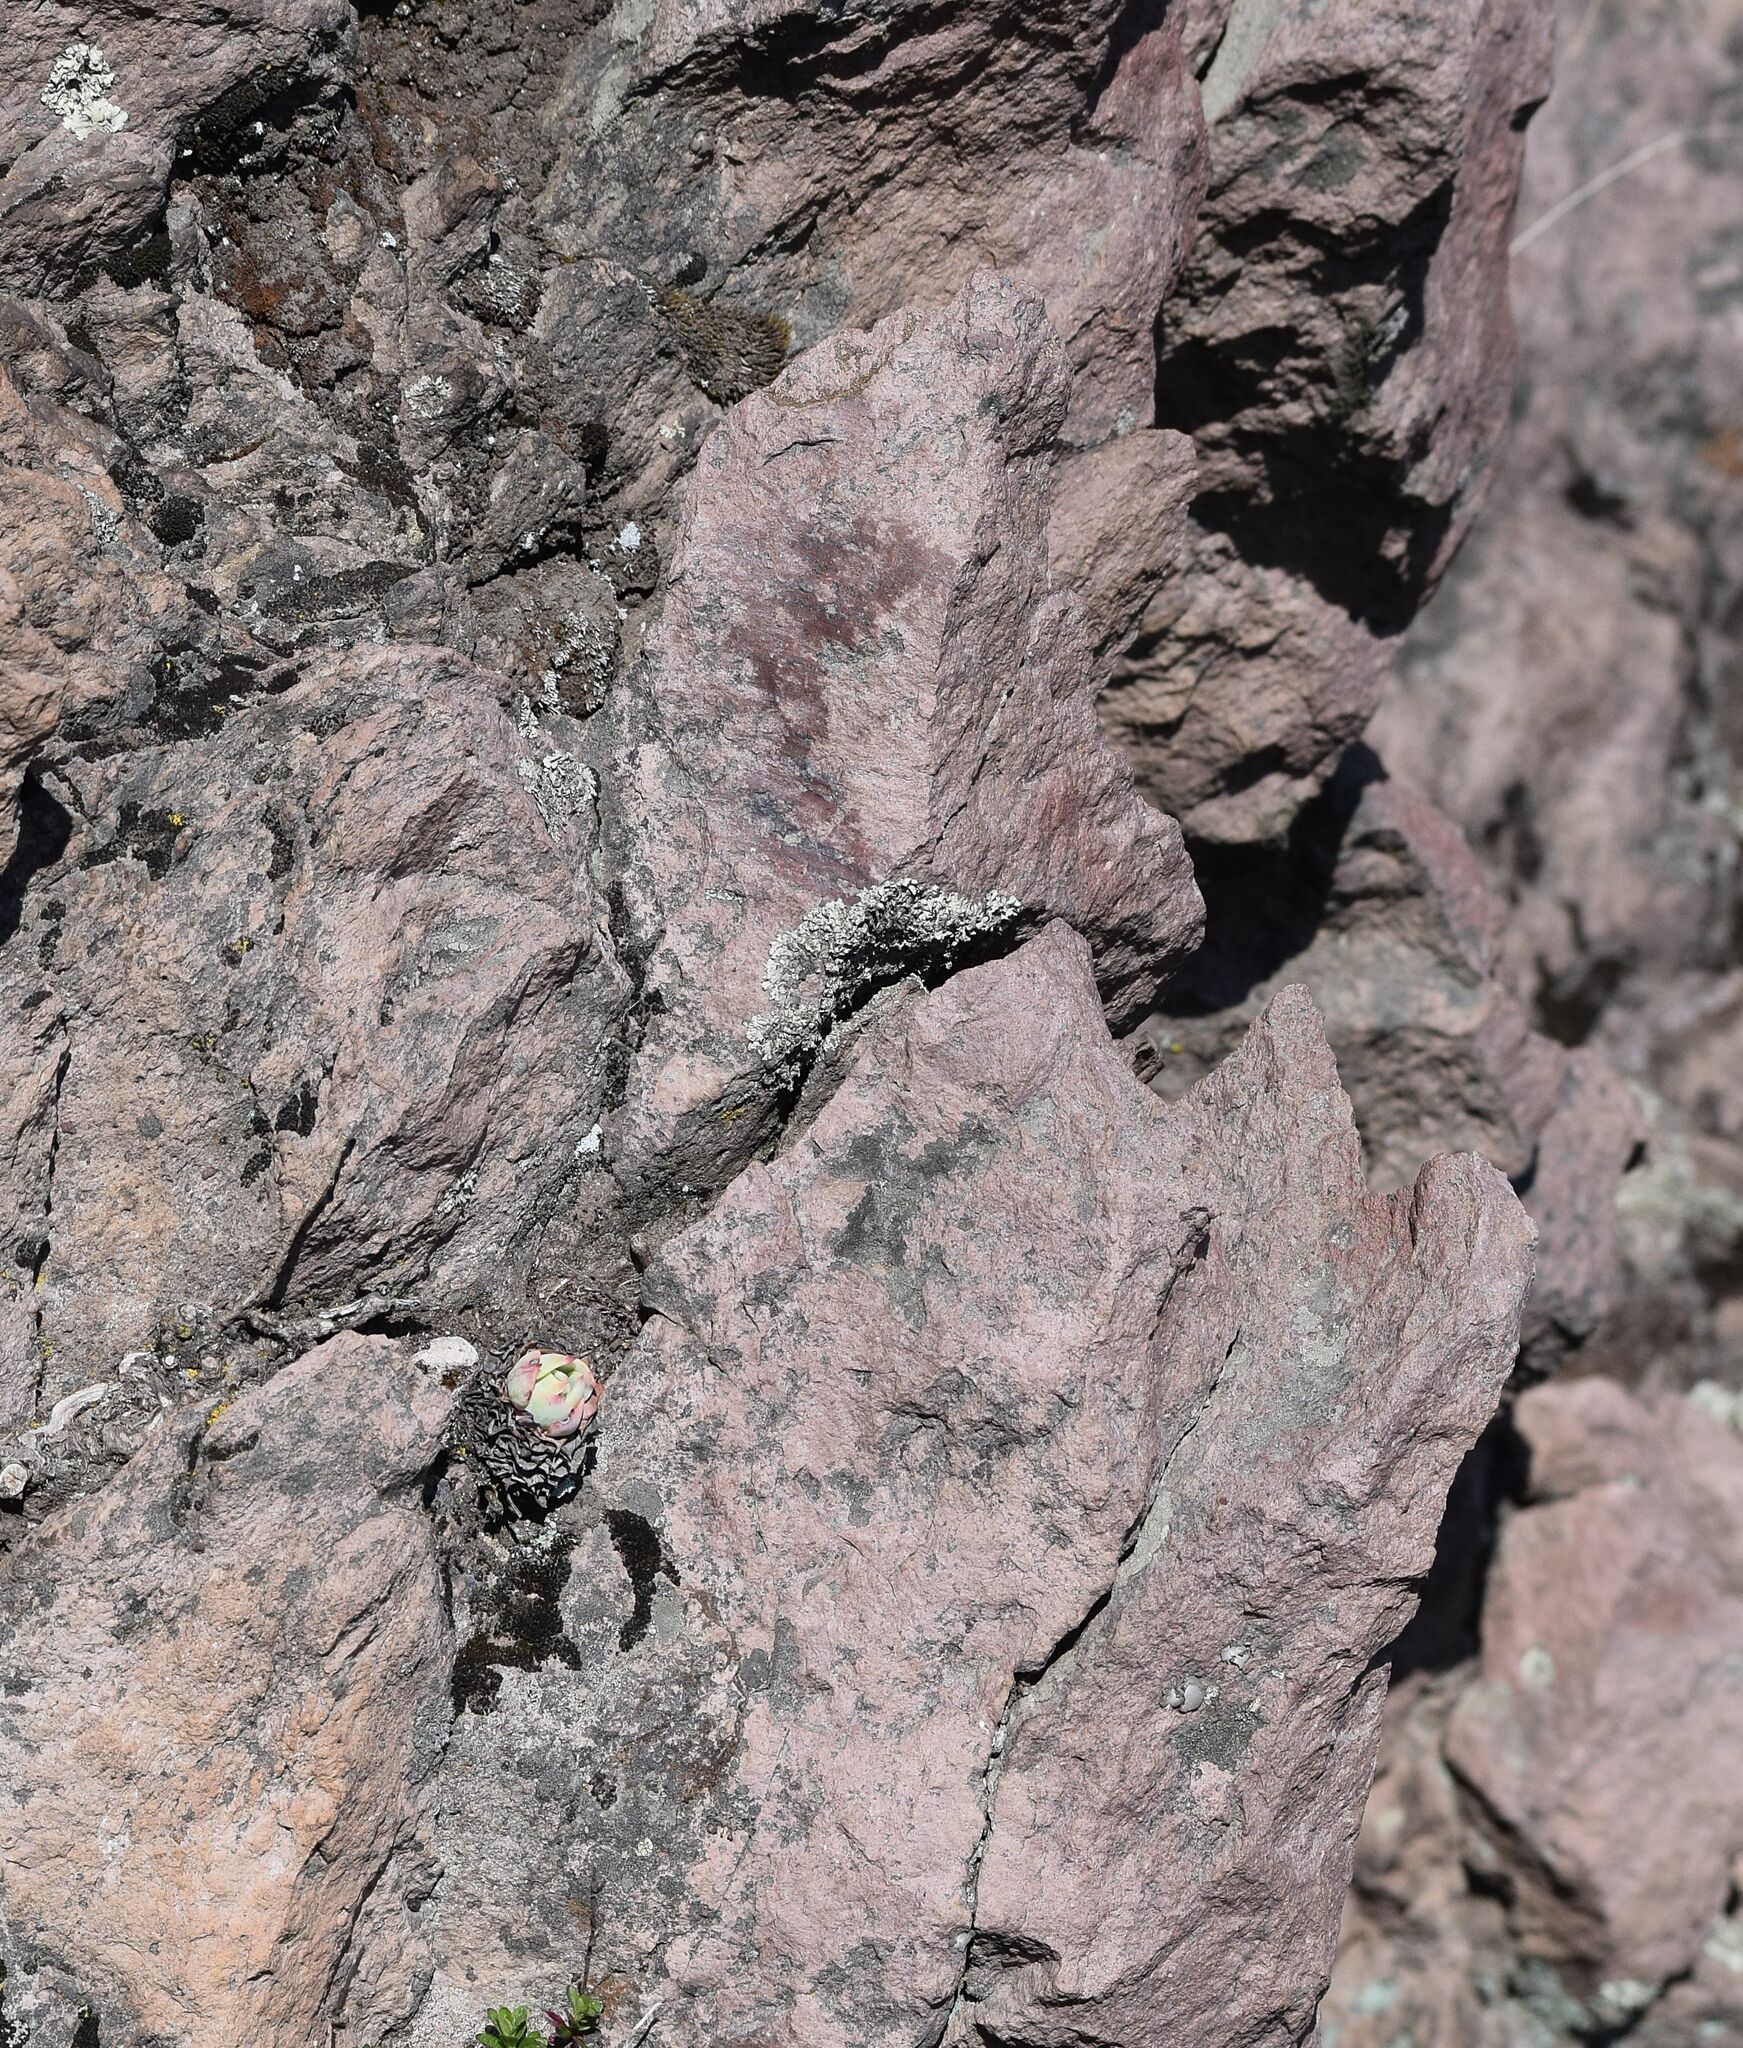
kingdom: Plantae
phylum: Tracheophyta
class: Magnoliopsida
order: Saxifragales
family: Crassulaceae
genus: Echeveria
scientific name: Echeveria secunda
